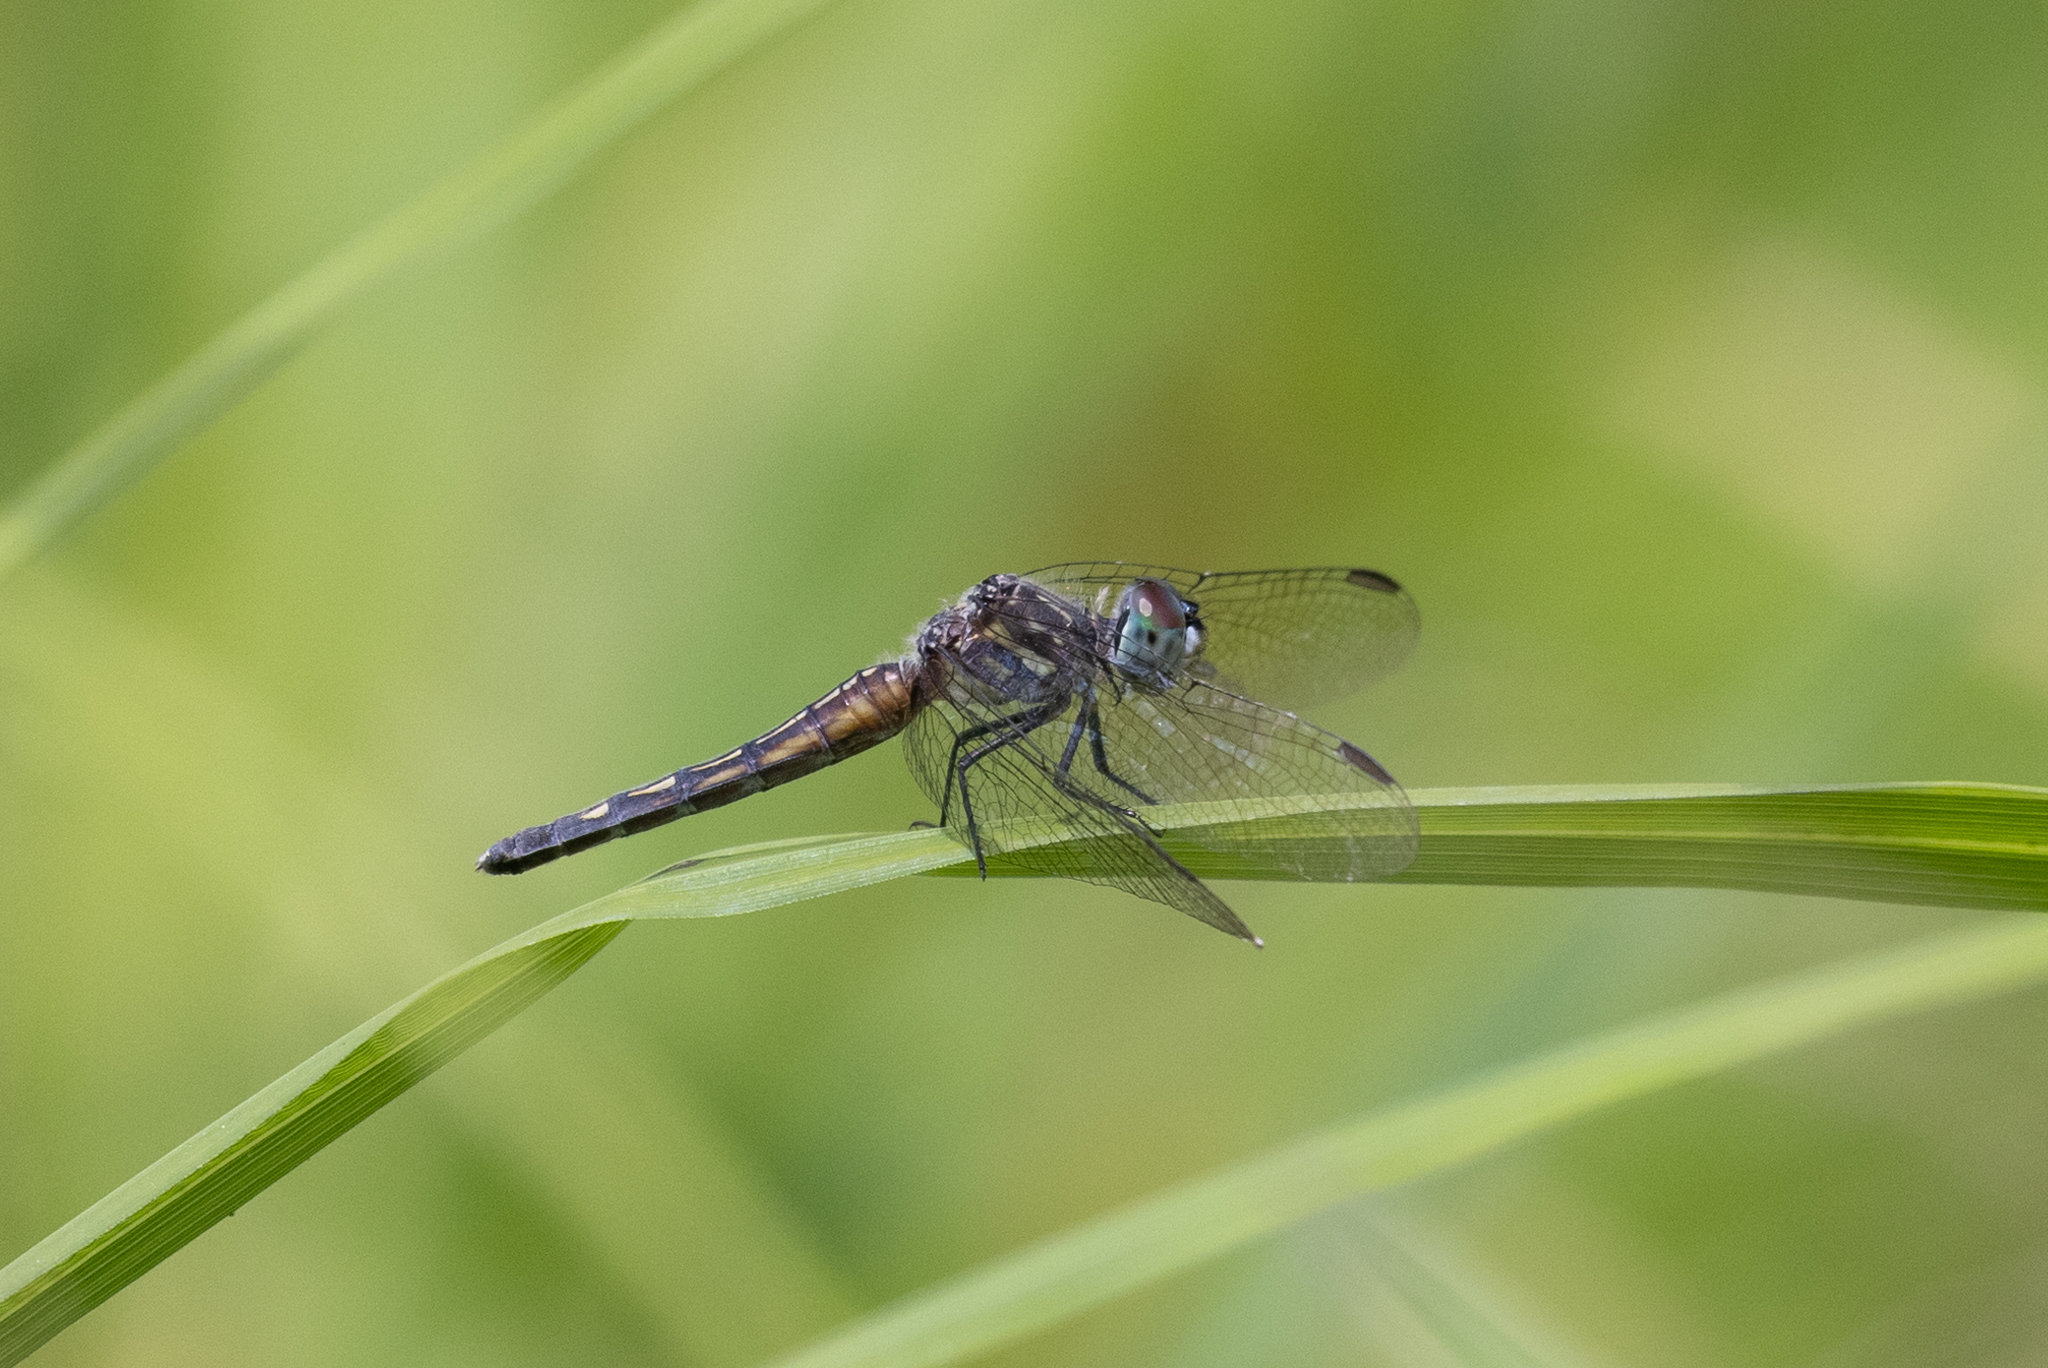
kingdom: Animalia
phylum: Arthropoda
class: Insecta
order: Odonata
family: Libellulidae
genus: Pachydiplax
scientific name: Pachydiplax longipennis
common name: Blue dasher
